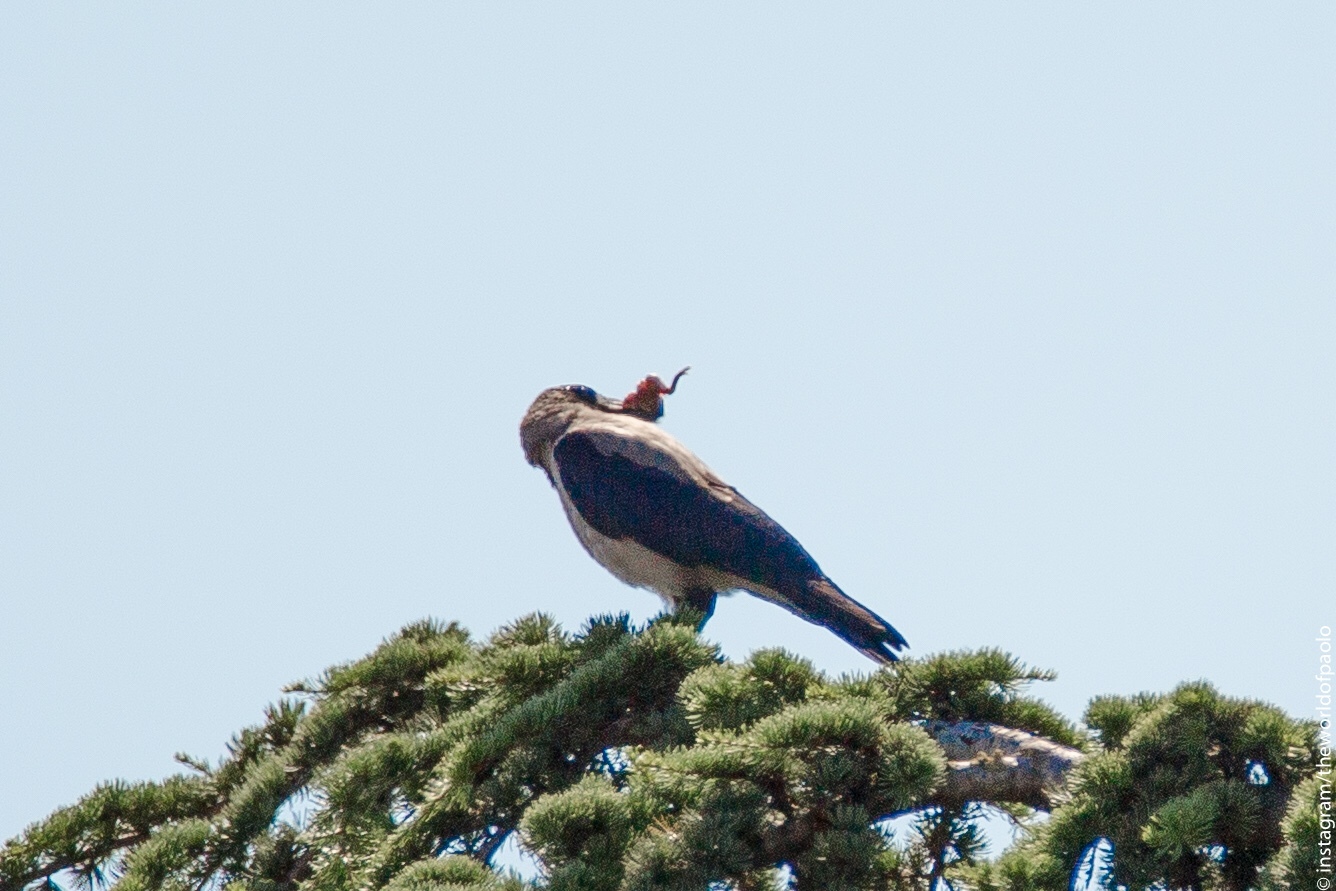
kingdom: Animalia
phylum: Chordata
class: Aves
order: Passeriformes
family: Corvidae
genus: Corvus
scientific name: Corvus cornix
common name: Hooded crow
